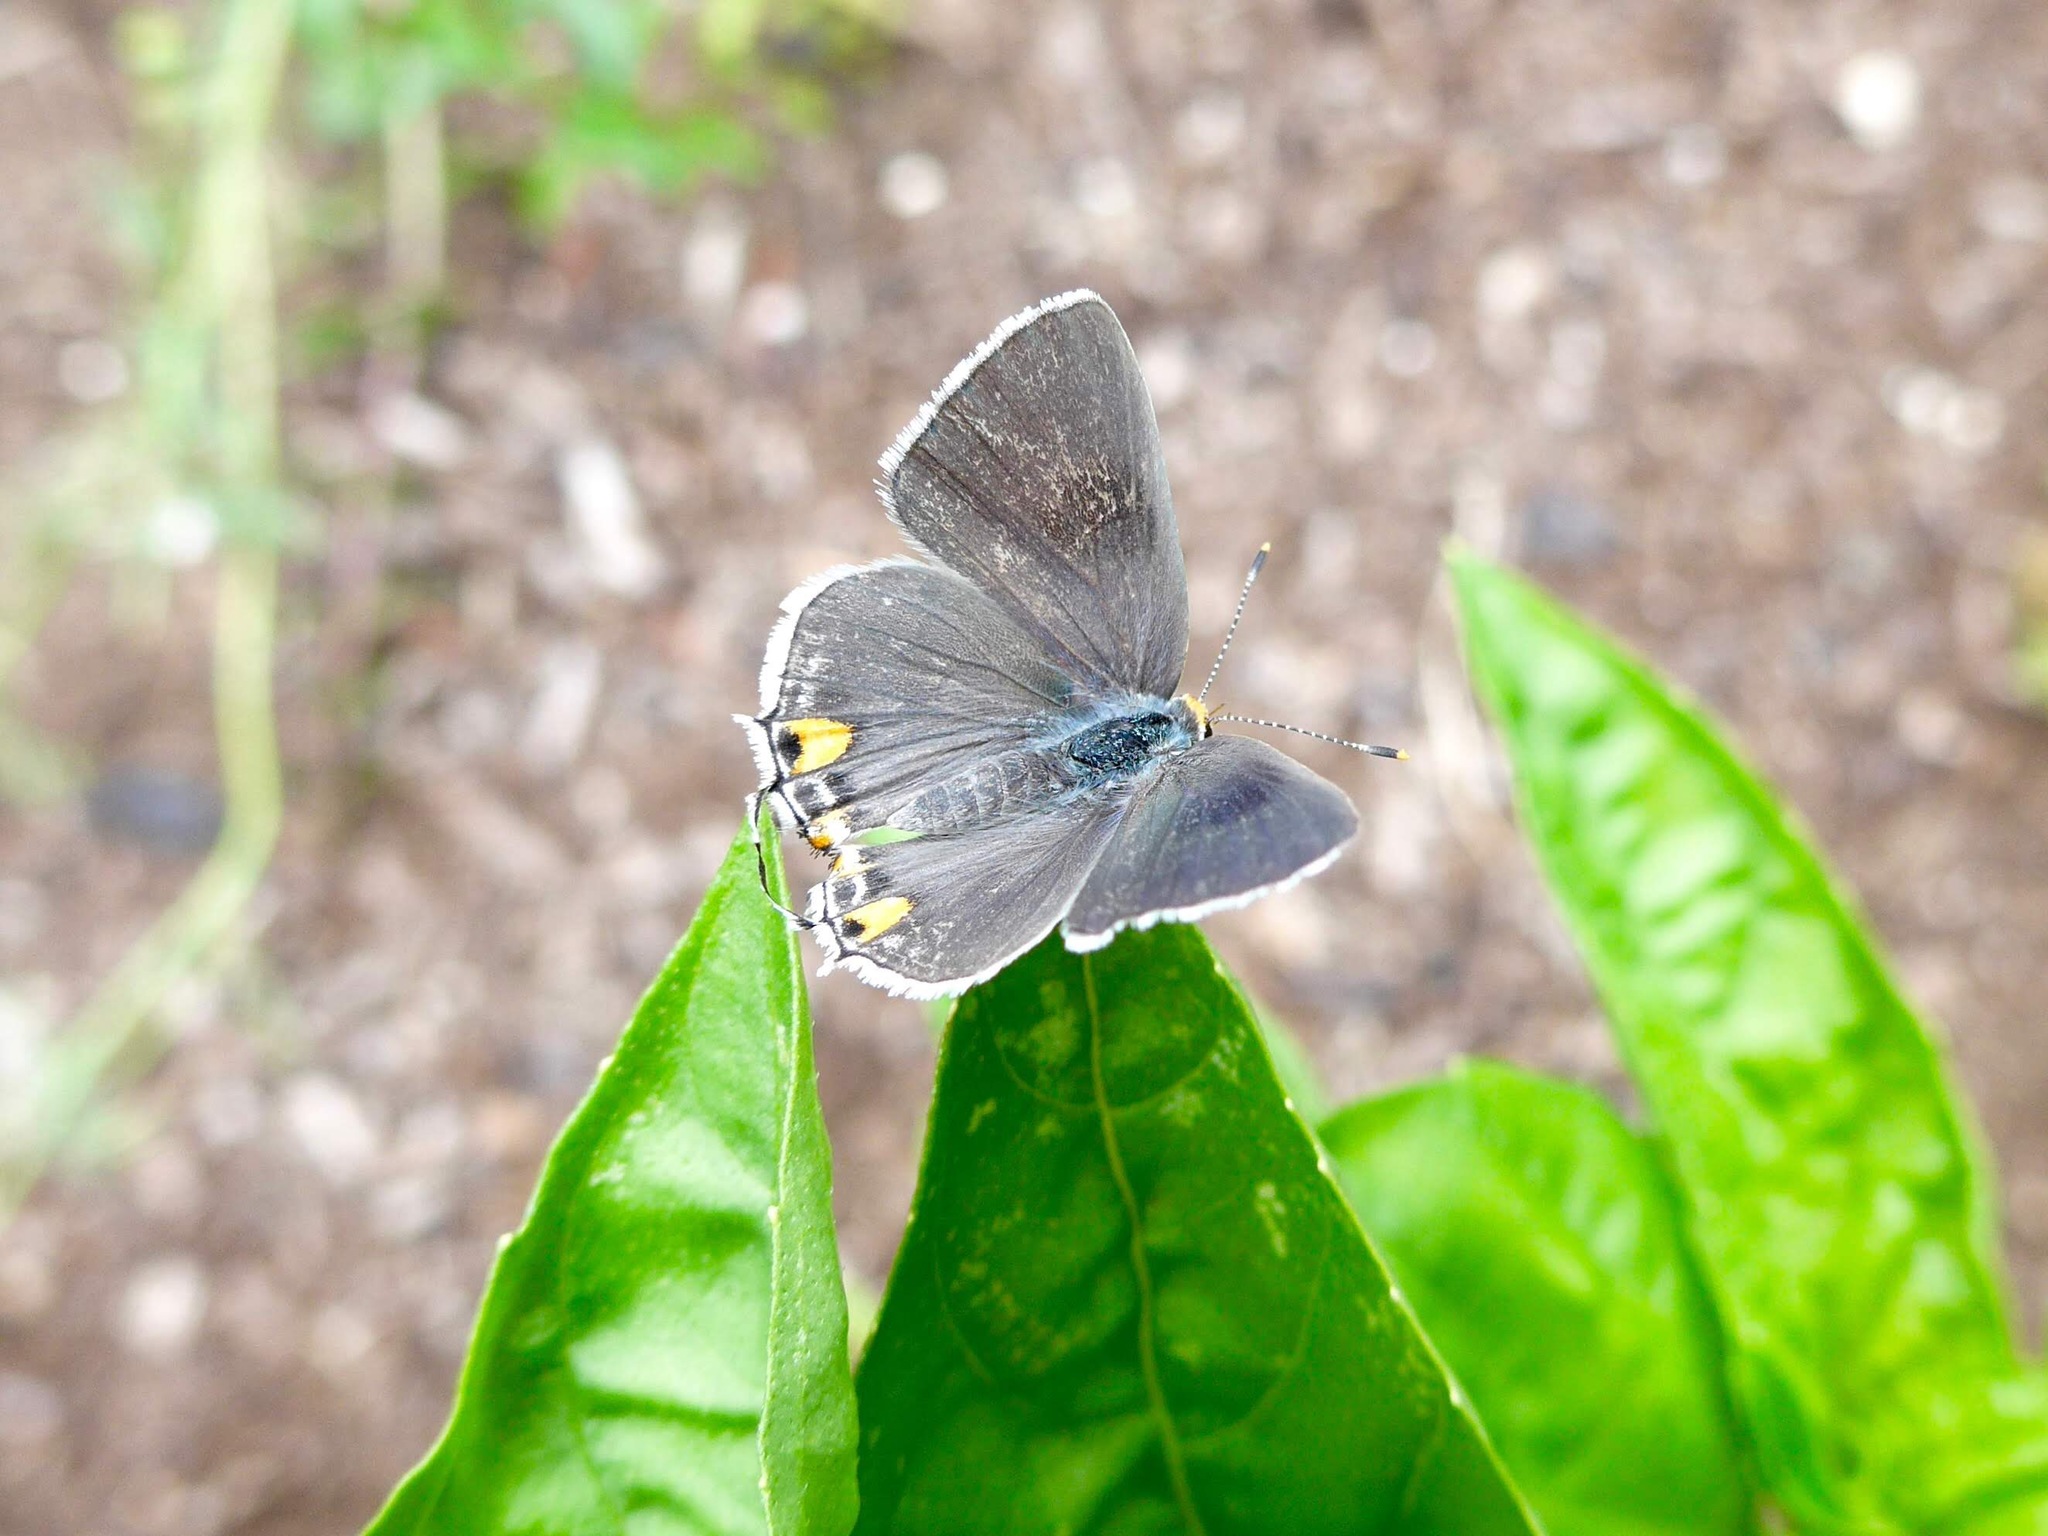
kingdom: Animalia
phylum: Arthropoda
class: Insecta
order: Lepidoptera
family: Lycaenidae
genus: Strymon
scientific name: Strymon melinus
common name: Gray hairstreak
